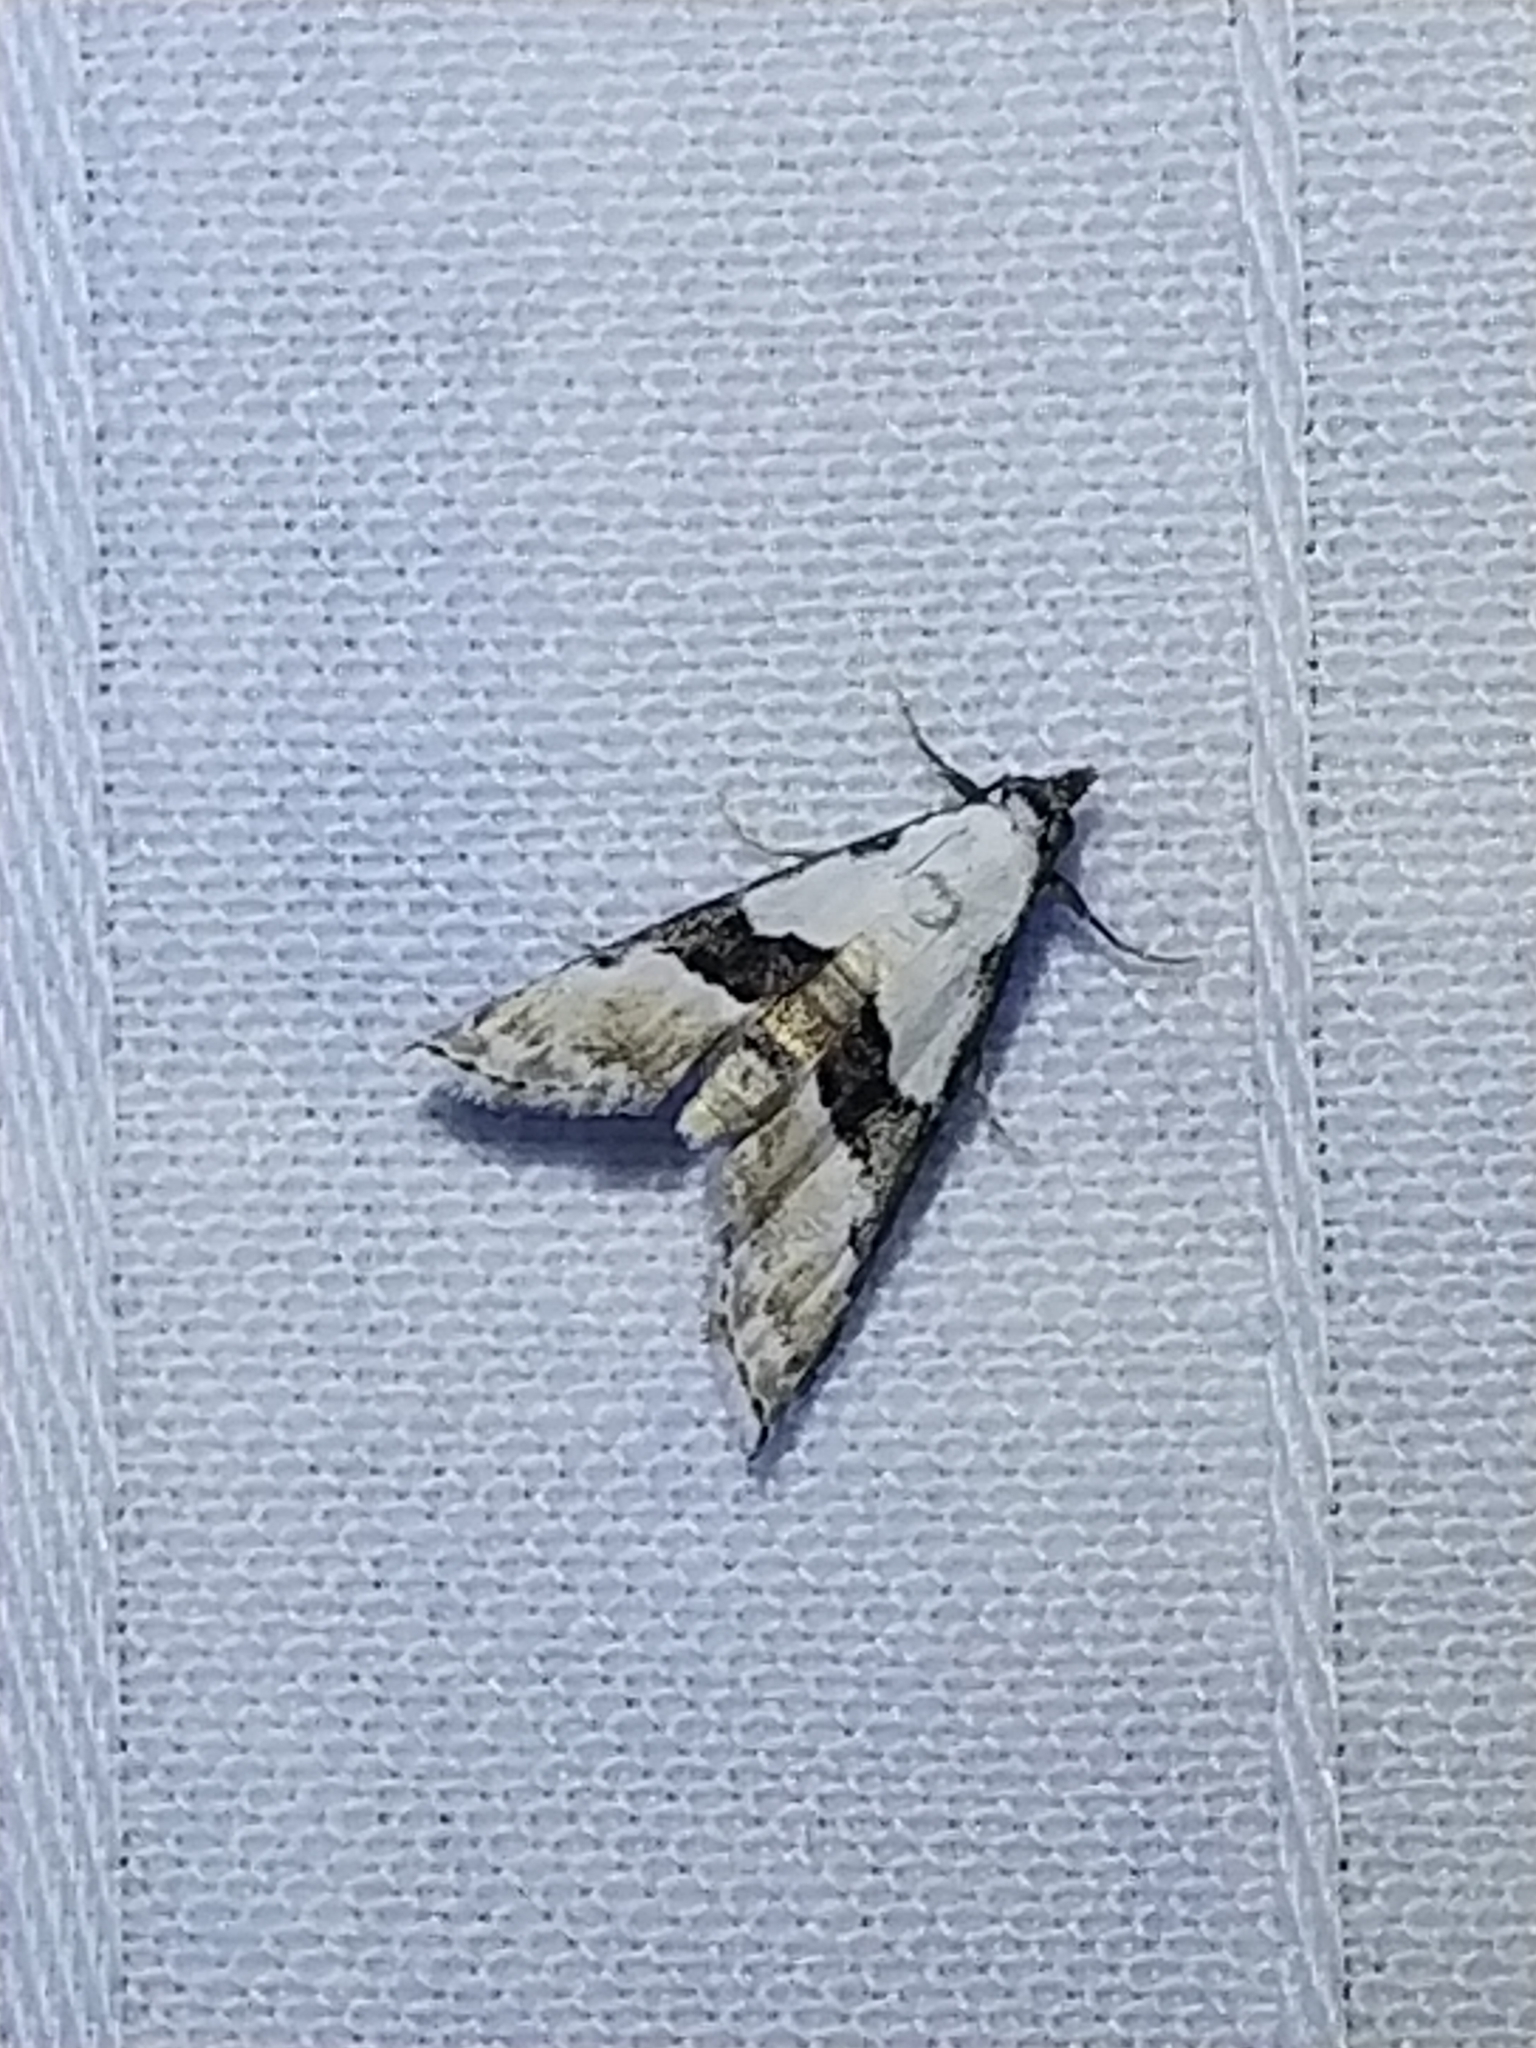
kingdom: Animalia
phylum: Arthropoda
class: Insecta
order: Lepidoptera
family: Noctuidae
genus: Nigetia
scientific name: Nigetia formosalis
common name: Thin-winged owlet
